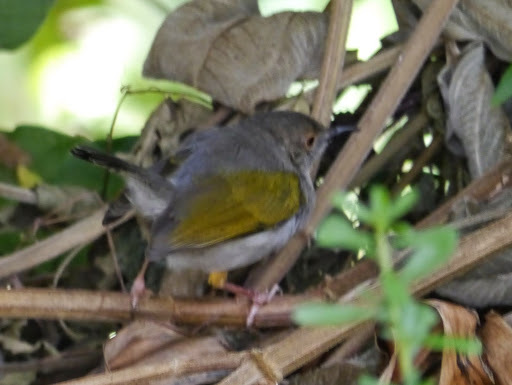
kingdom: Animalia
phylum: Chordata
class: Aves
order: Passeriformes
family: Cisticolidae
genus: Camaroptera
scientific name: Camaroptera brachyura
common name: Green-backed camaroptera
